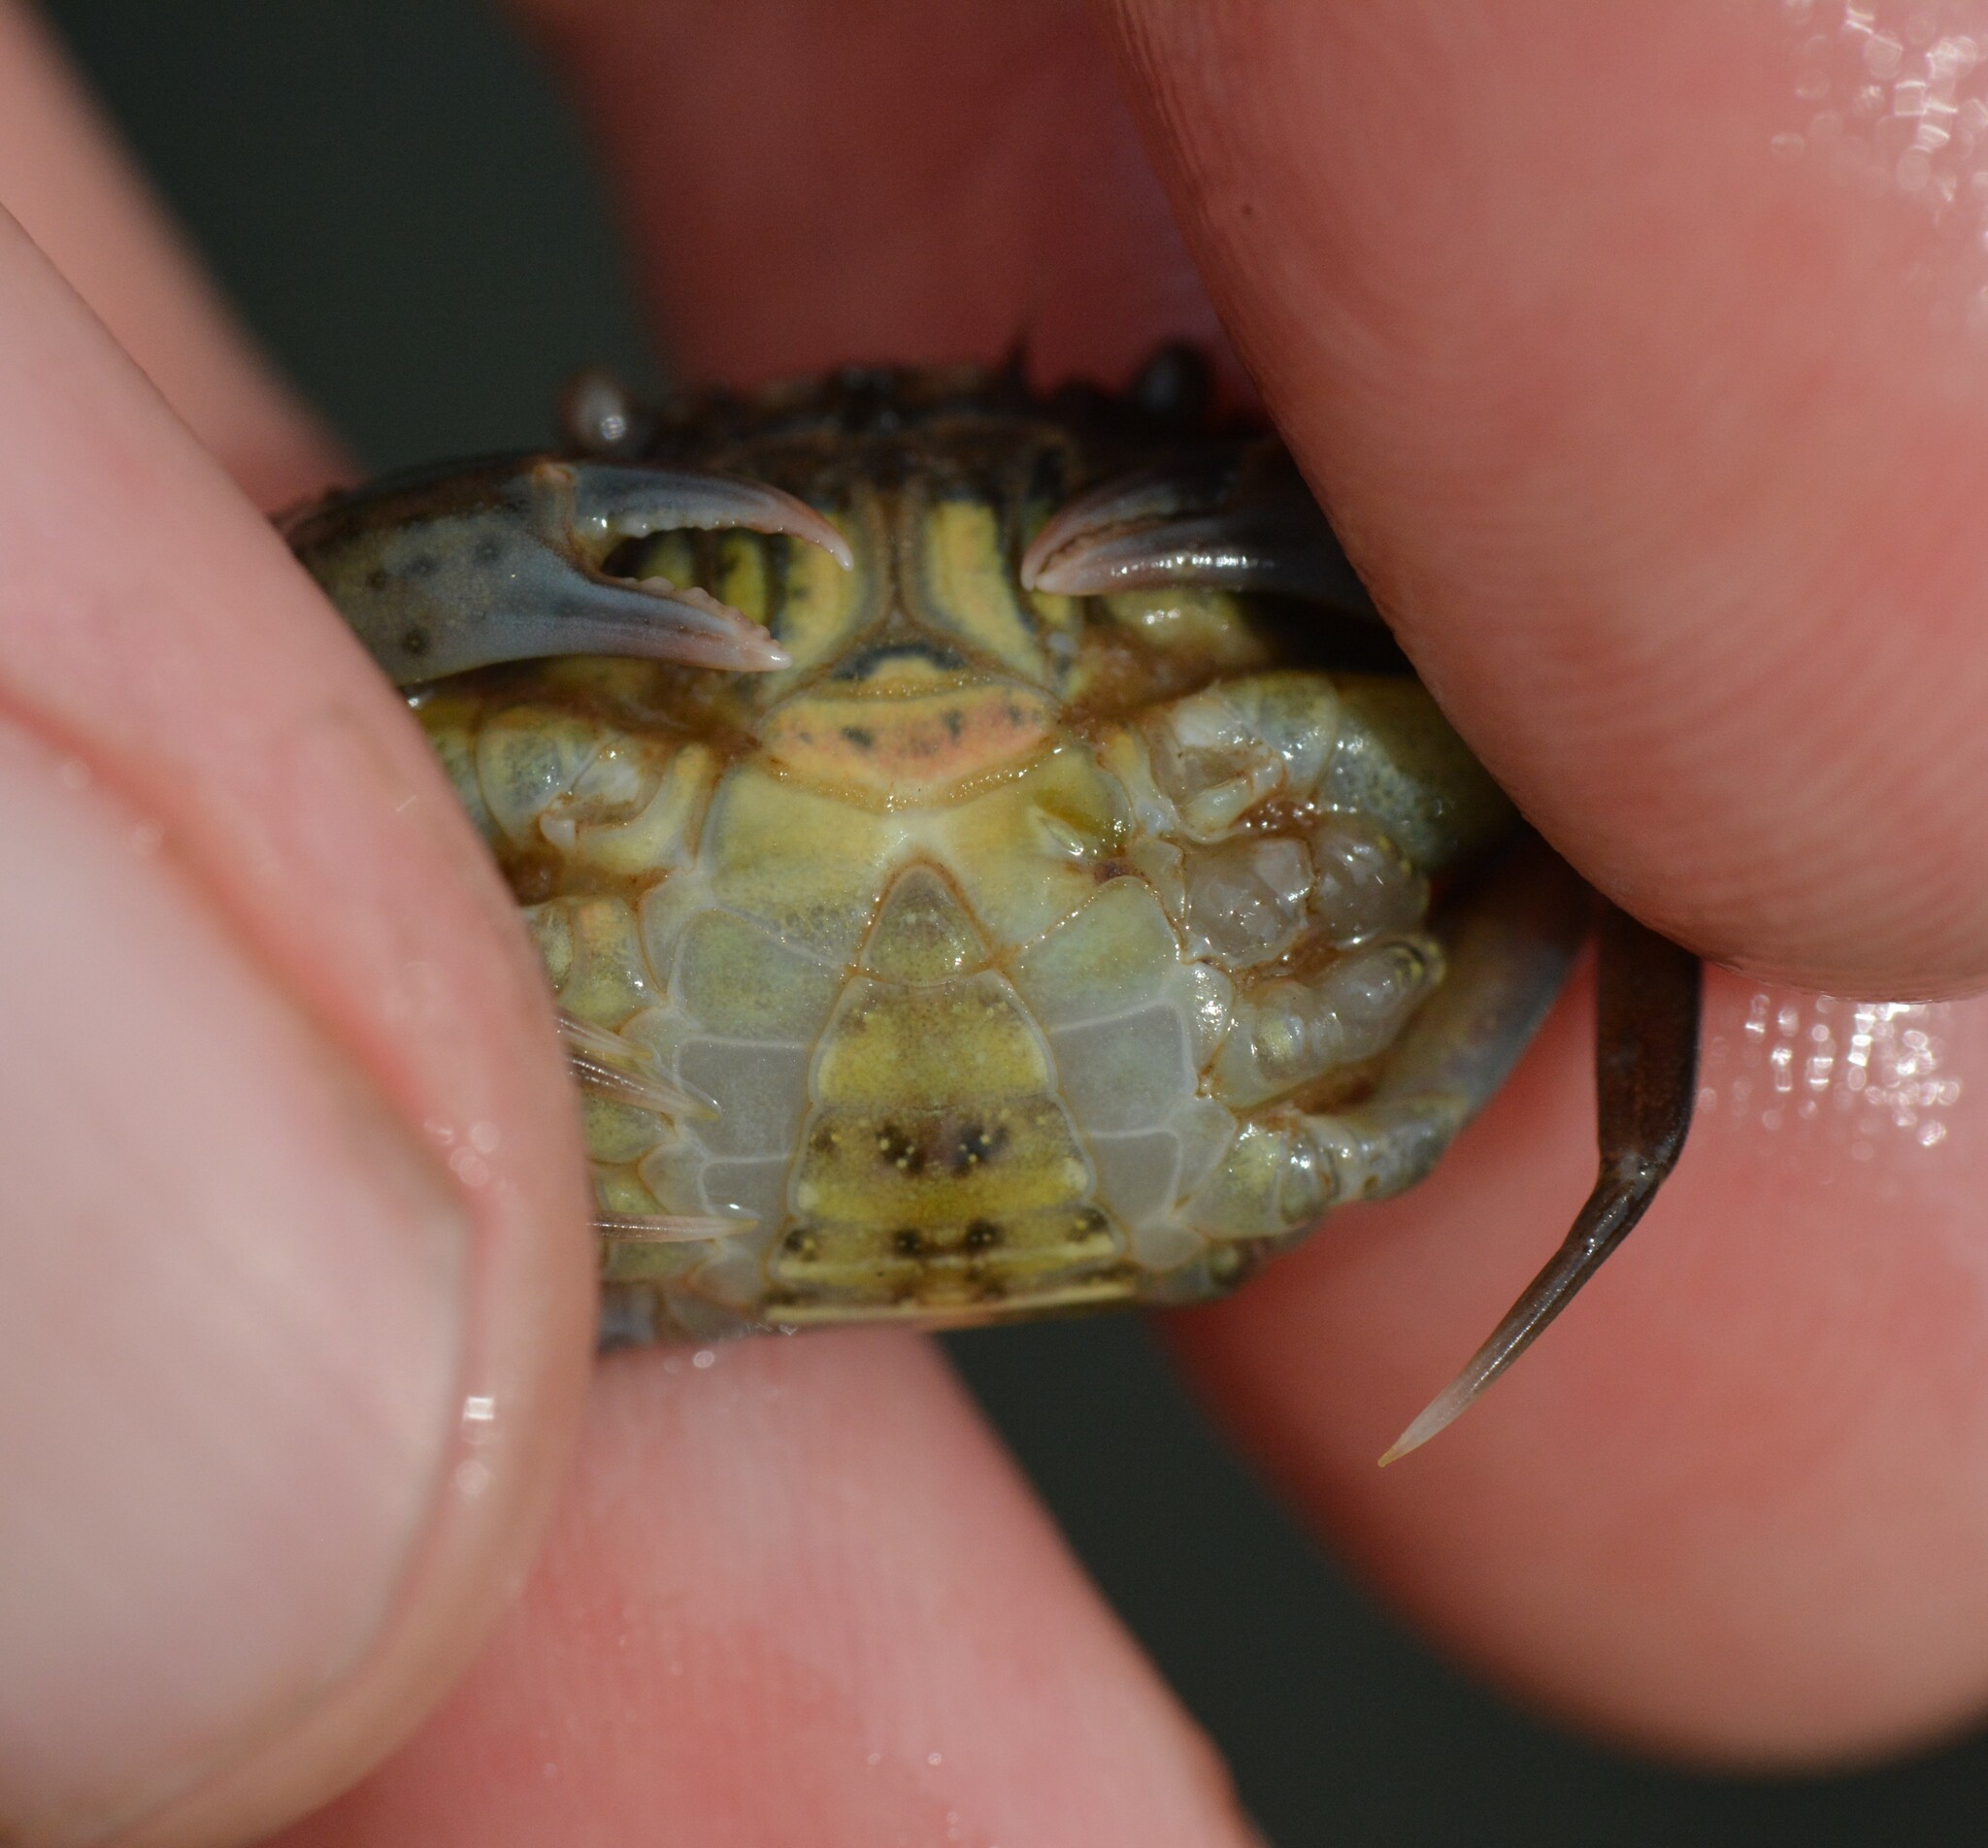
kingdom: Animalia
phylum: Arthropoda
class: Malacostraca
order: Decapoda
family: Carcinidae
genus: Carcinus
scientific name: Carcinus maenas
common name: European green crab
